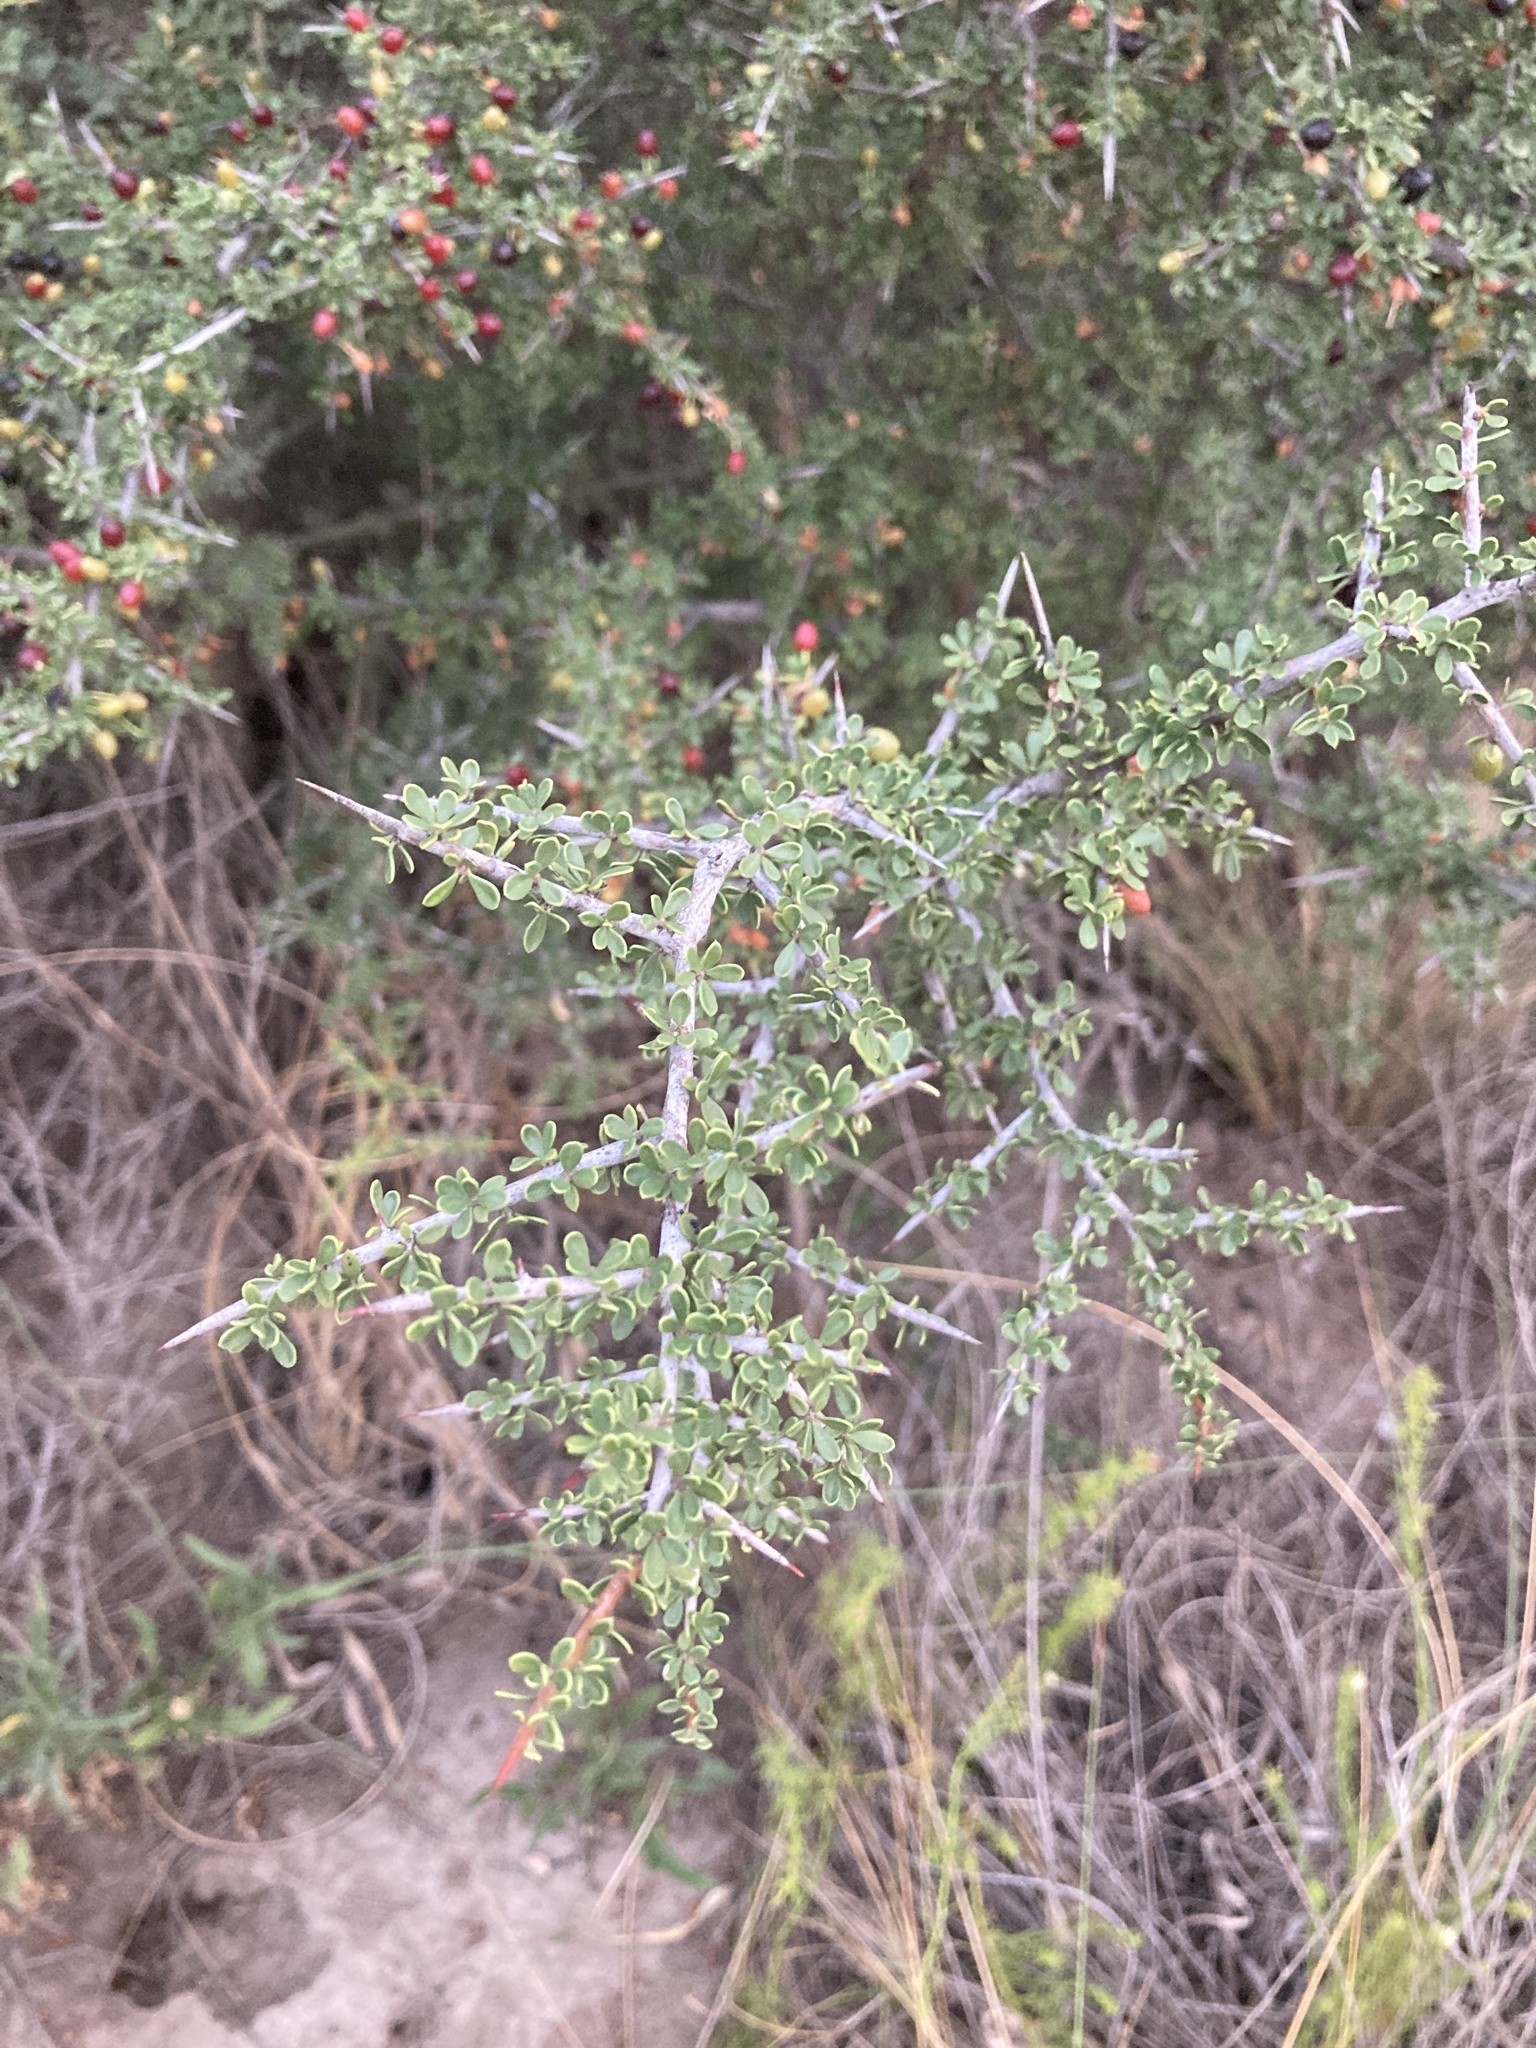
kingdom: Plantae
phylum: Tracheophyta
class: Magnoliopsida
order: Rosales
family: Rhamnaceae
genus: Condalia
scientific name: Condalia microphylla
